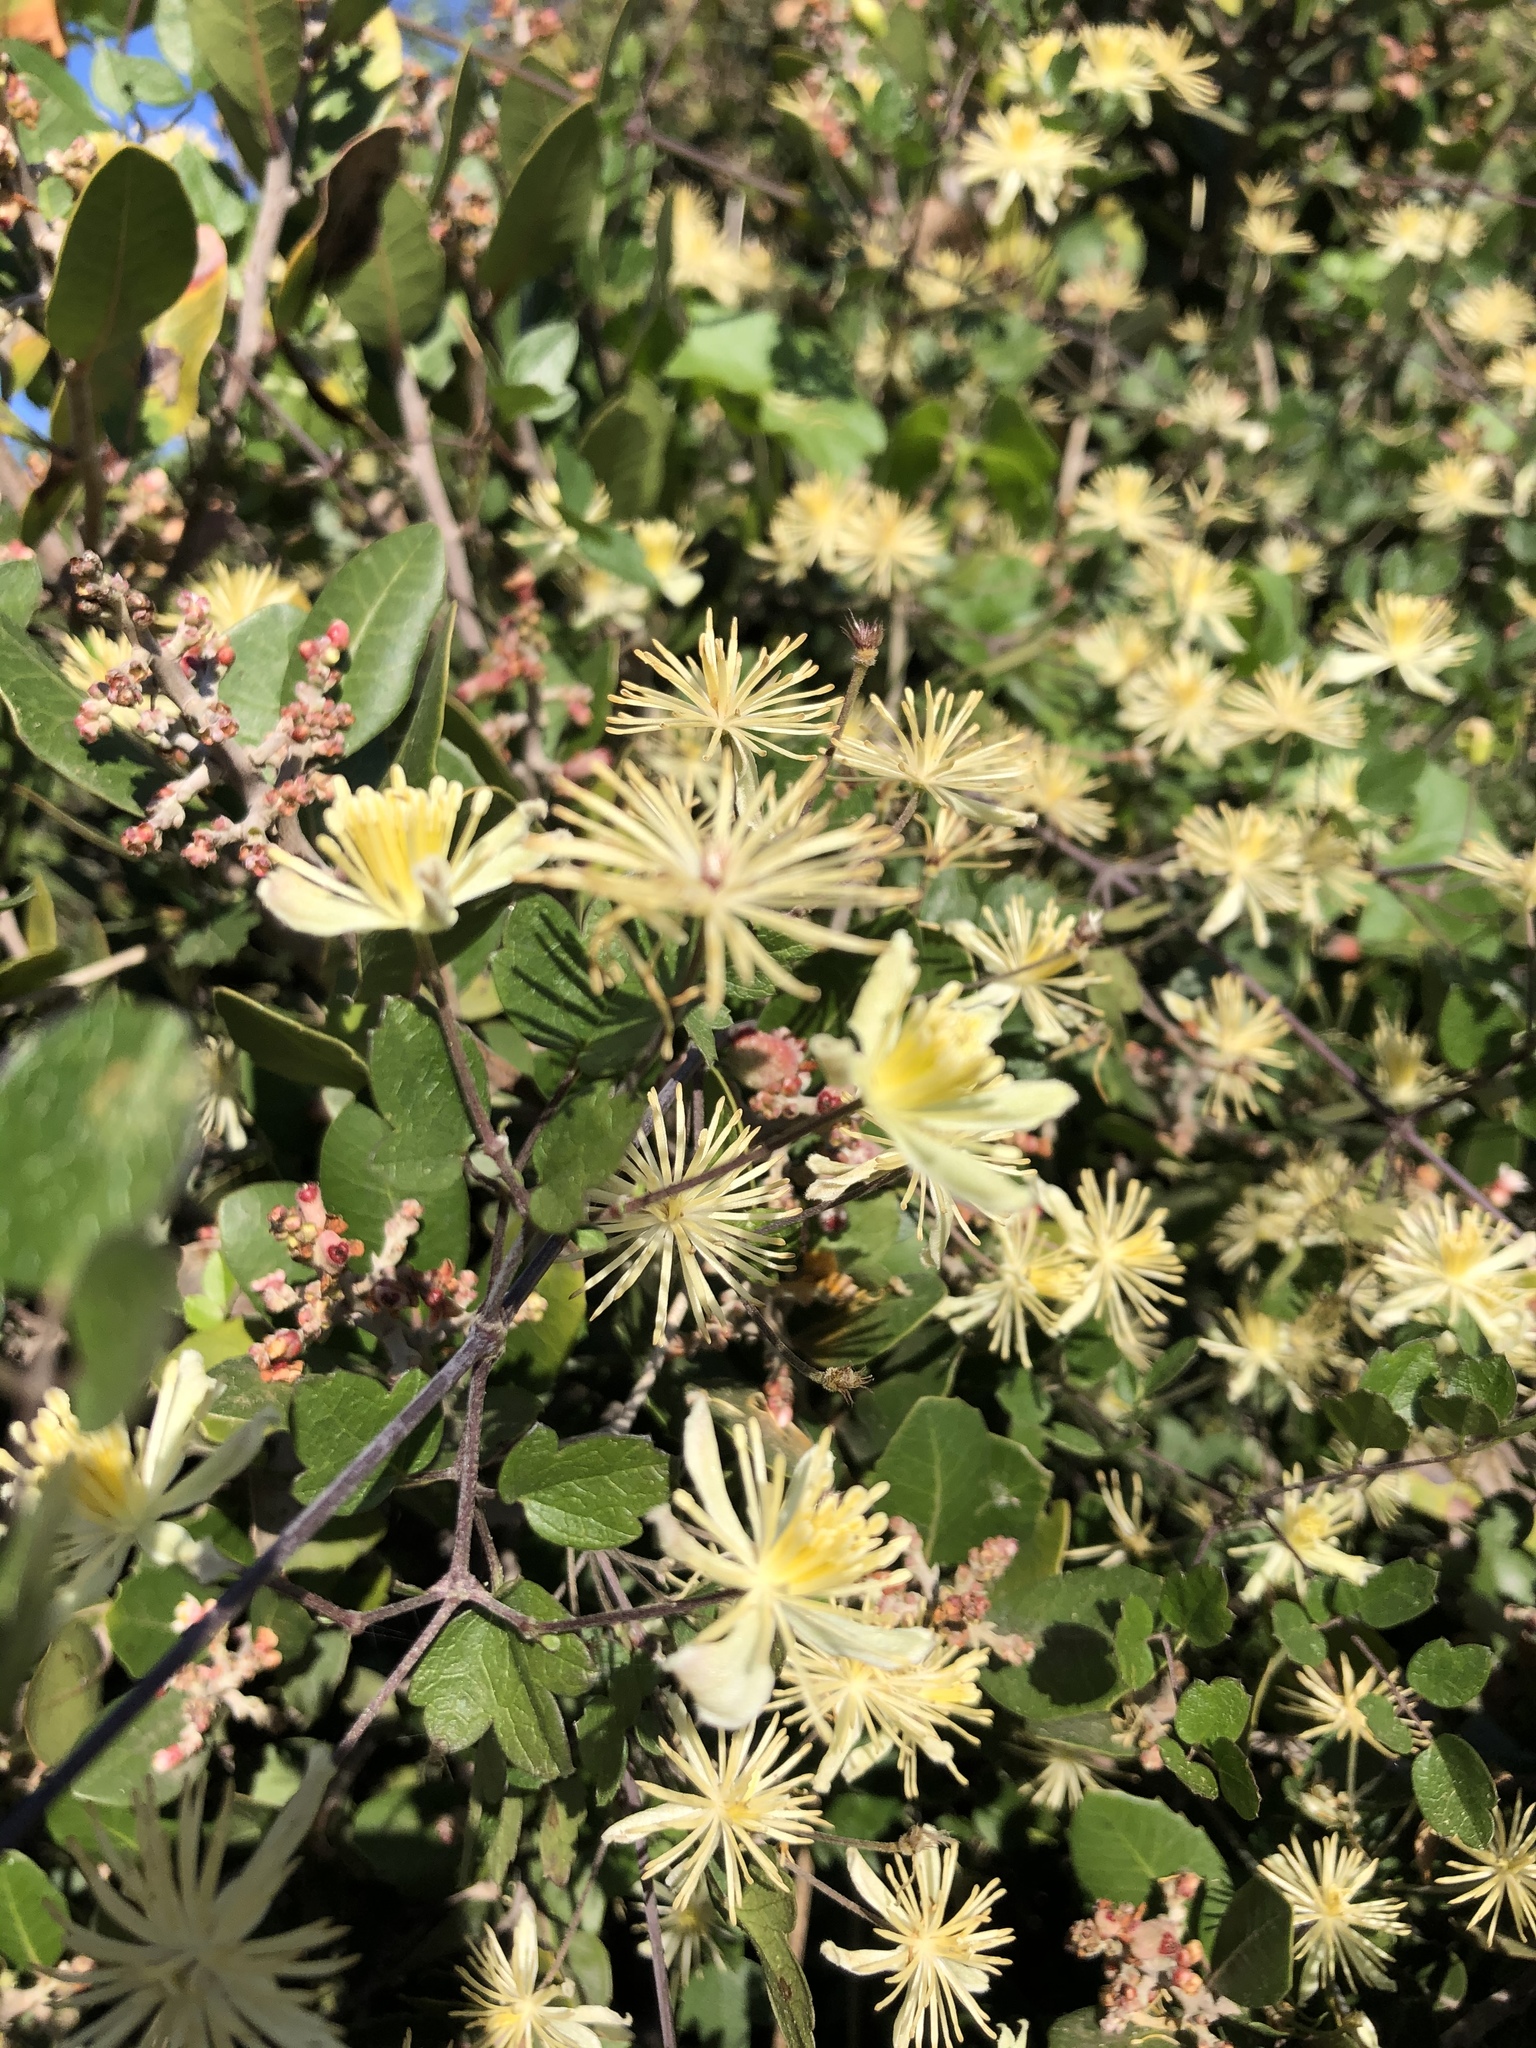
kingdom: Plantae
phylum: Tracheophyta
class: Magnoliopsida
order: Ranunculales
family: Ranunculaceae
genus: Clematis
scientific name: Clematis pauciflora
